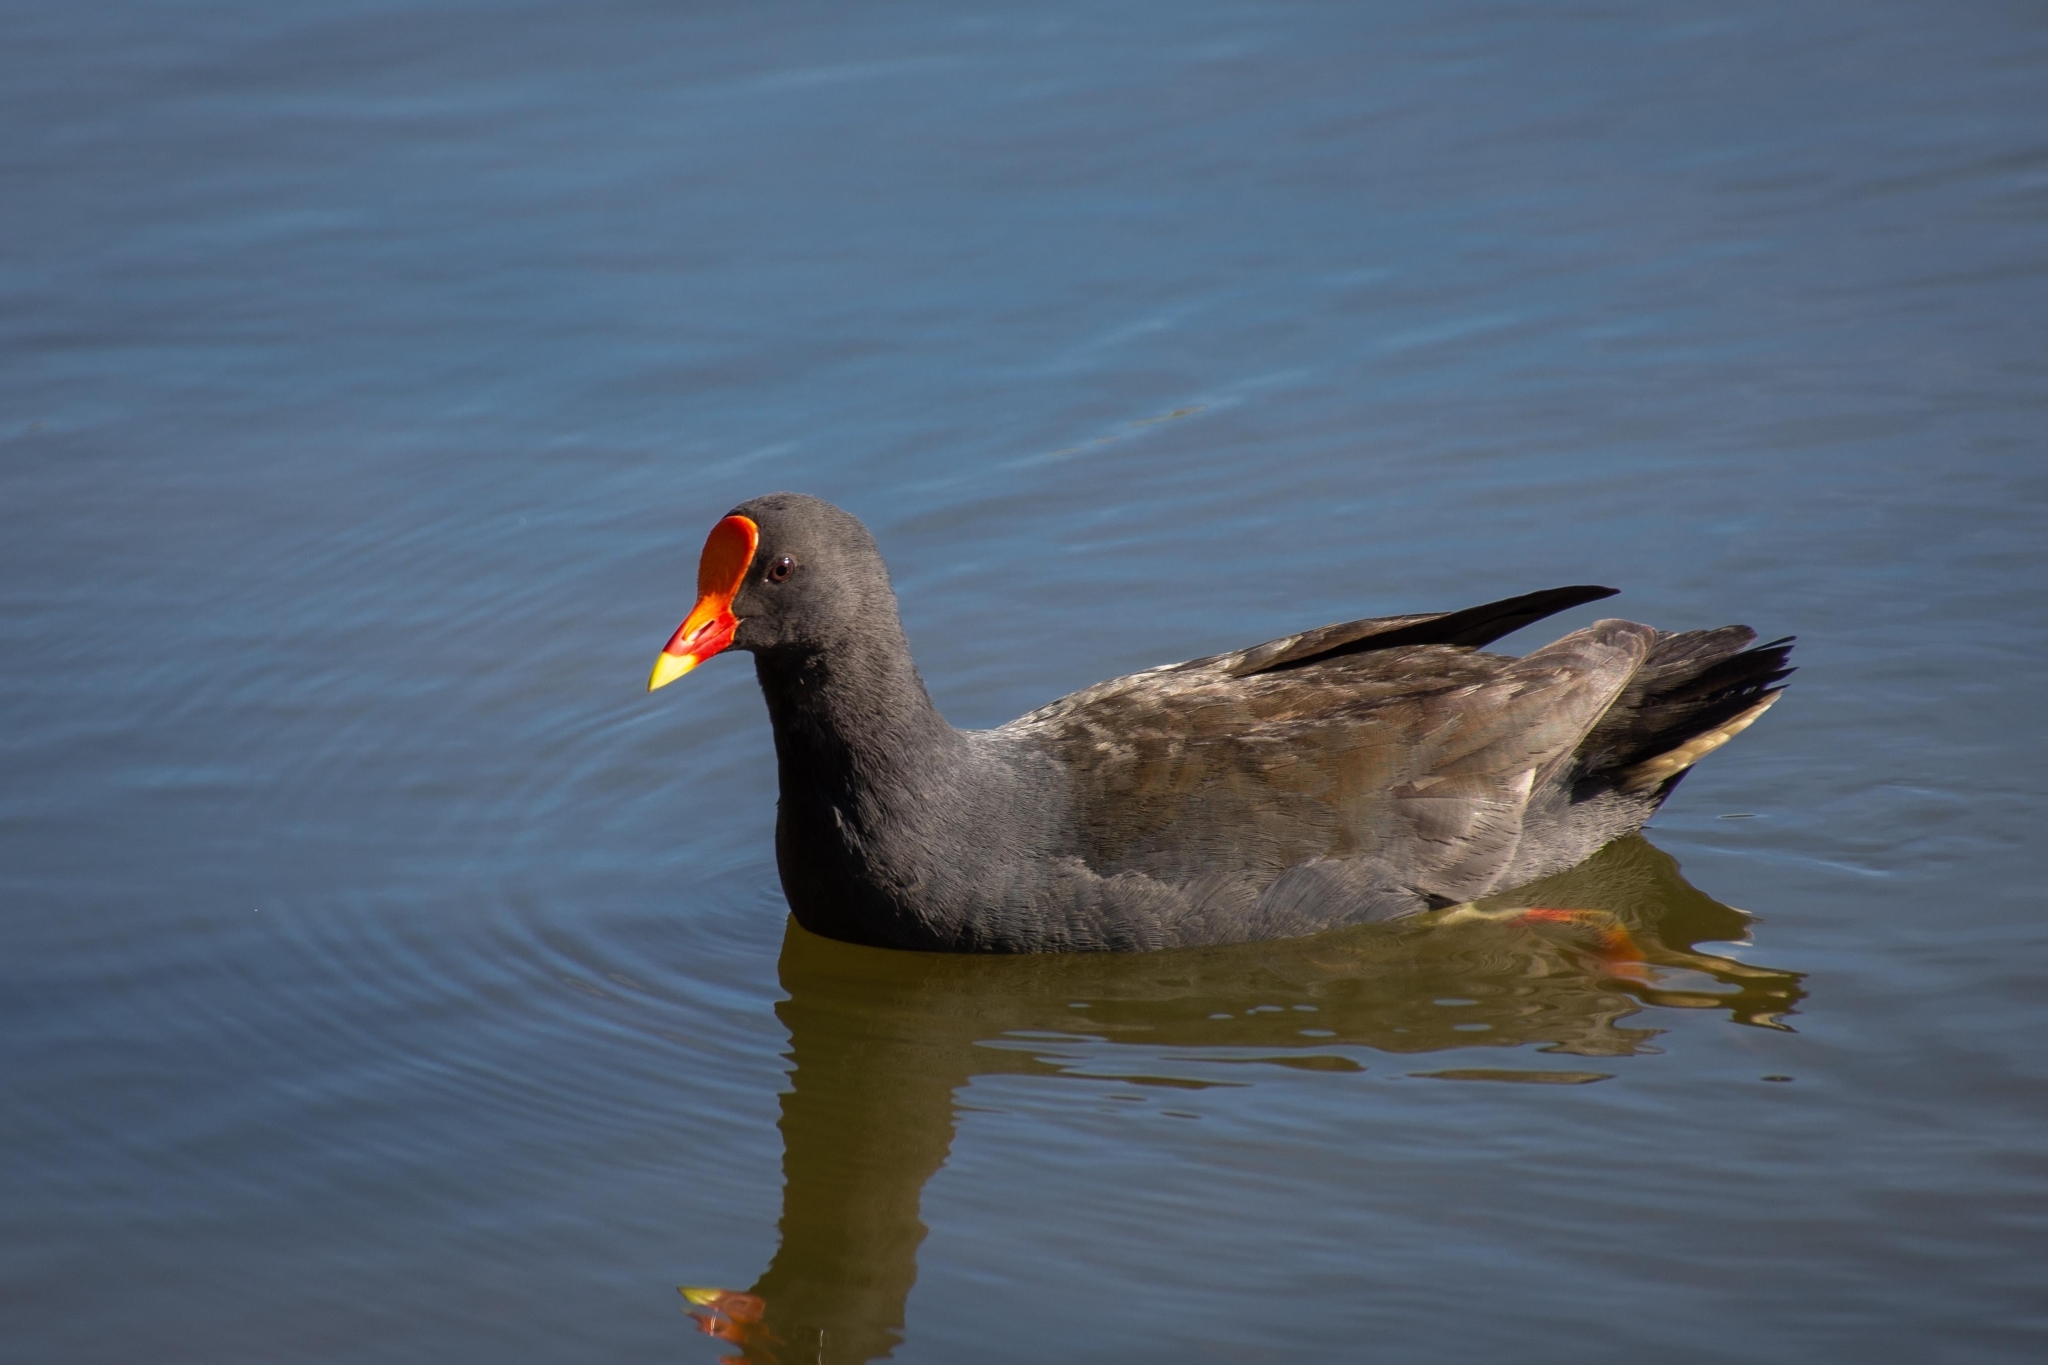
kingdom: Animalia
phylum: Chordata
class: Aves
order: Gruiformes
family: Rallidae
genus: Gallinula
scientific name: Gallinula tenebrosa
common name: Dusky moorhen
